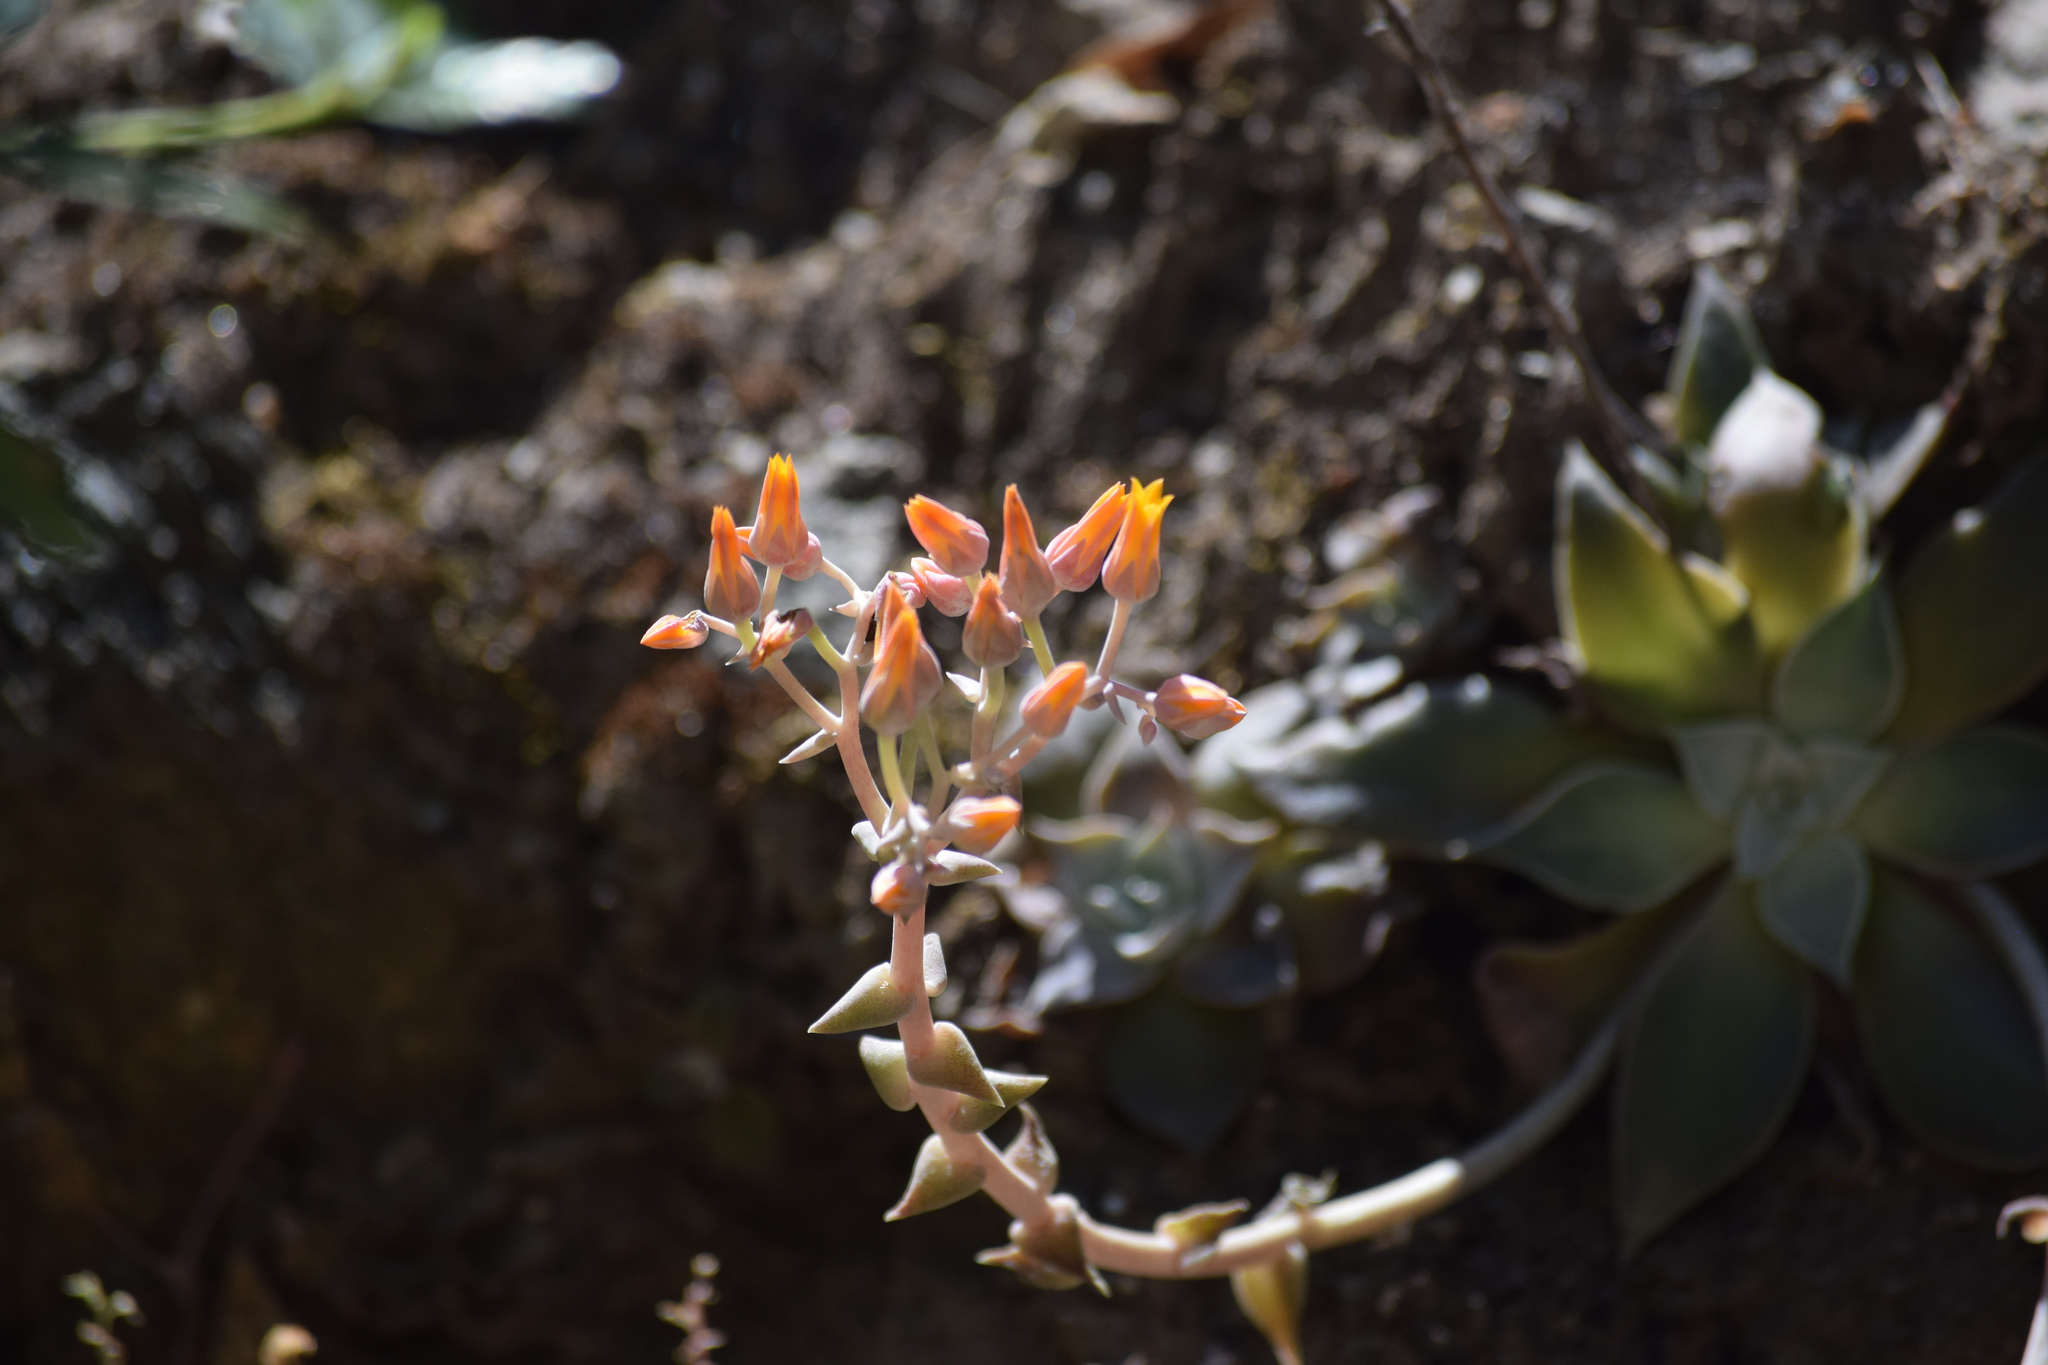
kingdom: Plantae
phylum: Tracheophyta
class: Magnoliopsida
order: Saxifragales
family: Crassulaceae
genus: Dudleya
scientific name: Dudleya cymosa
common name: Canyon dudleya
